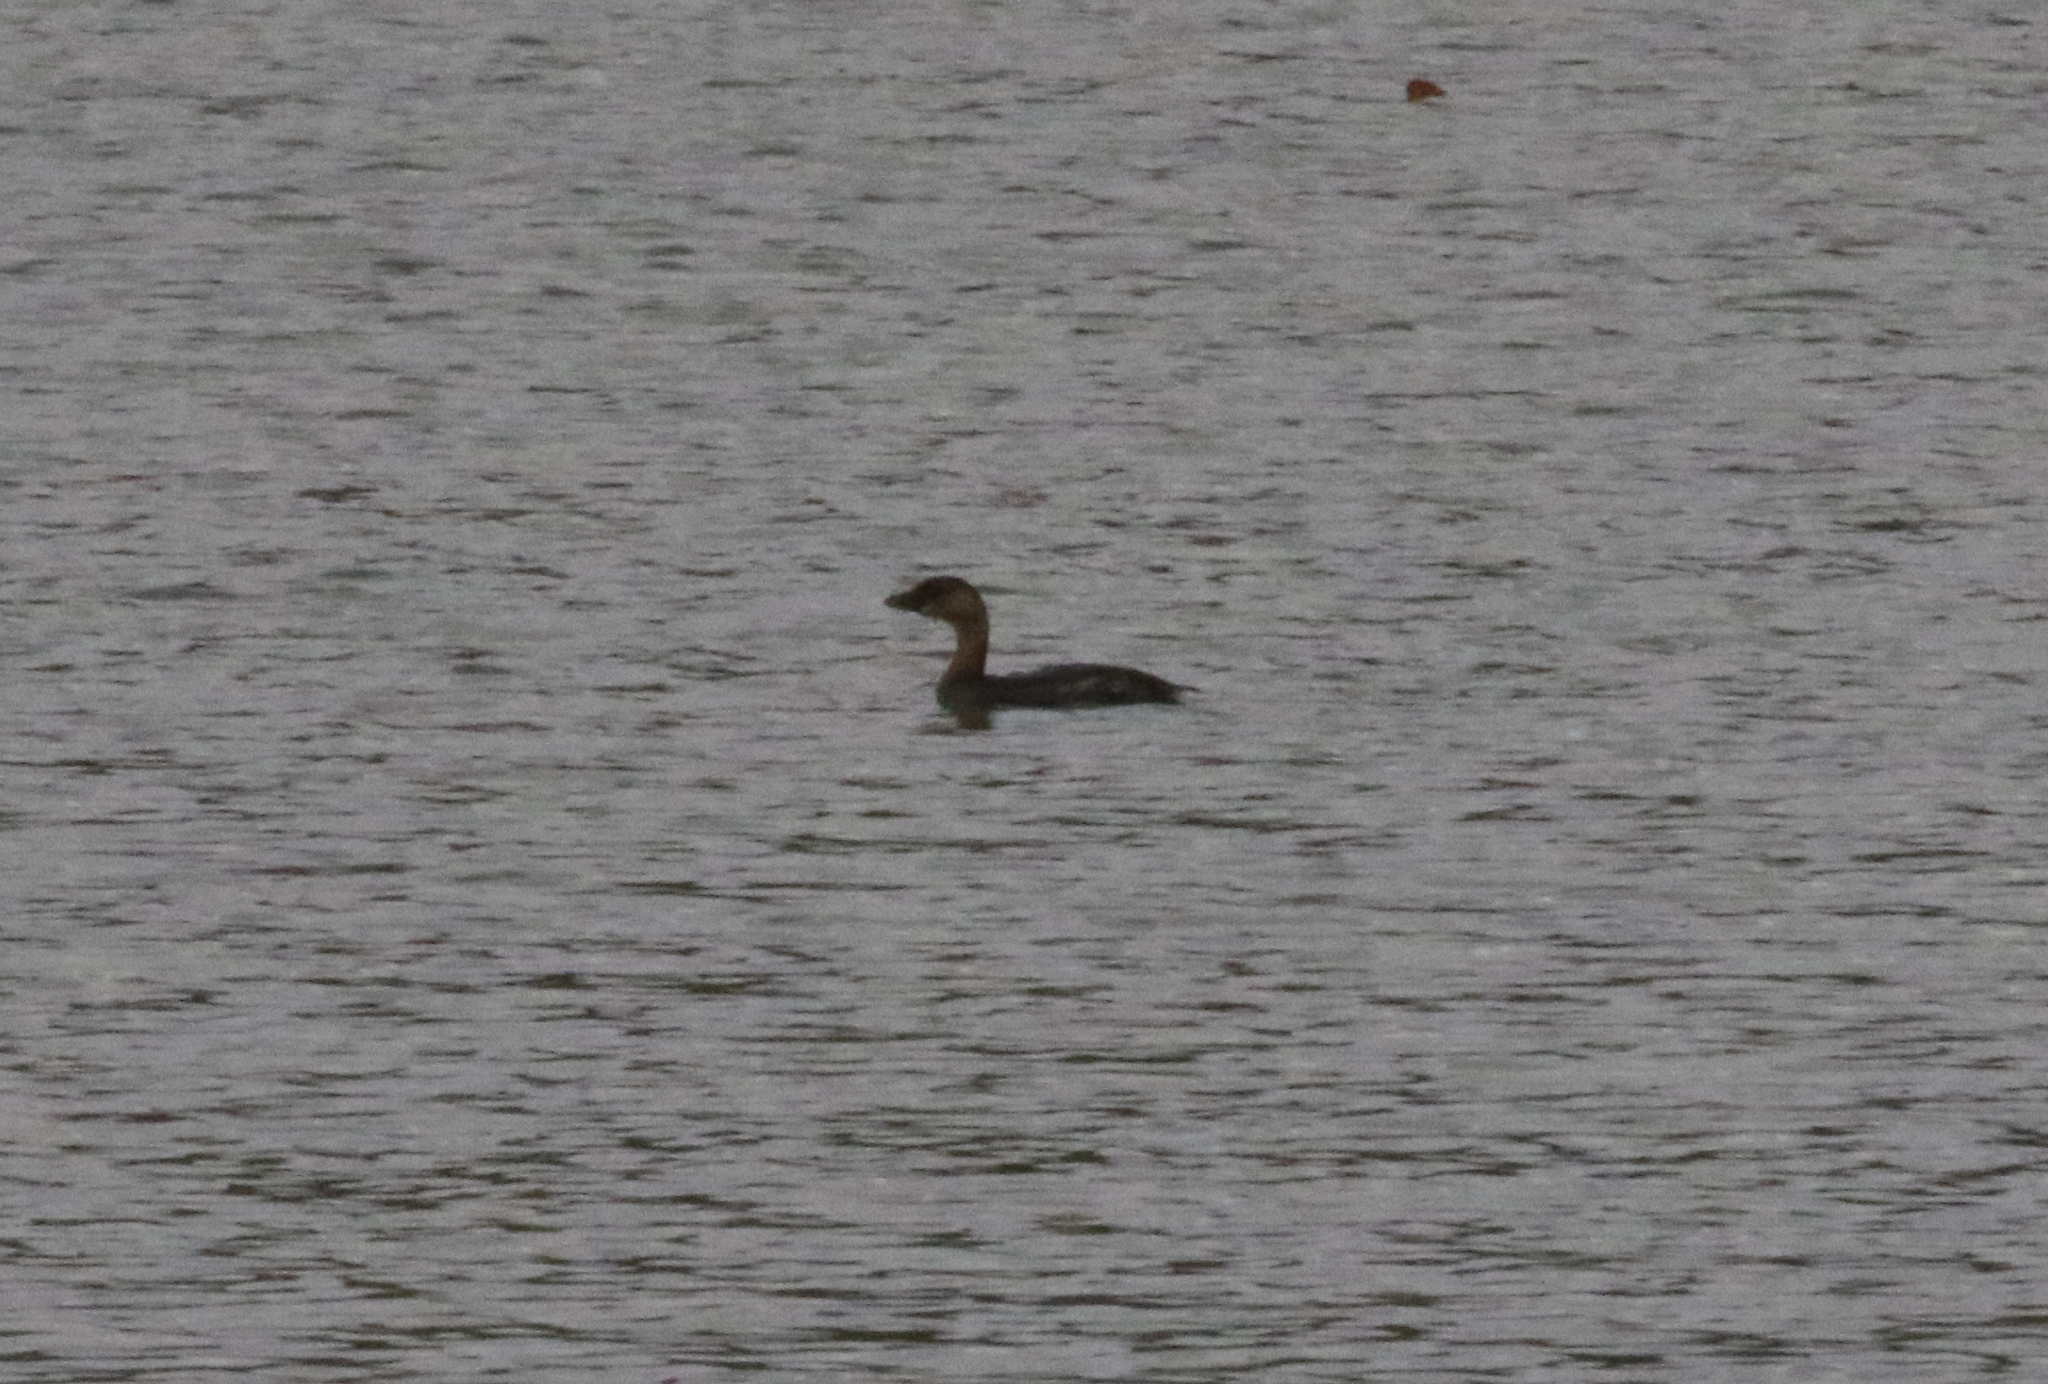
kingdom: Animalia
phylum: Chordata
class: Aves
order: Podicipediformes
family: Podicipedidae
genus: Podilymbus
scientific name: Podilymbus podiceps
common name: Pied-billed grebe
